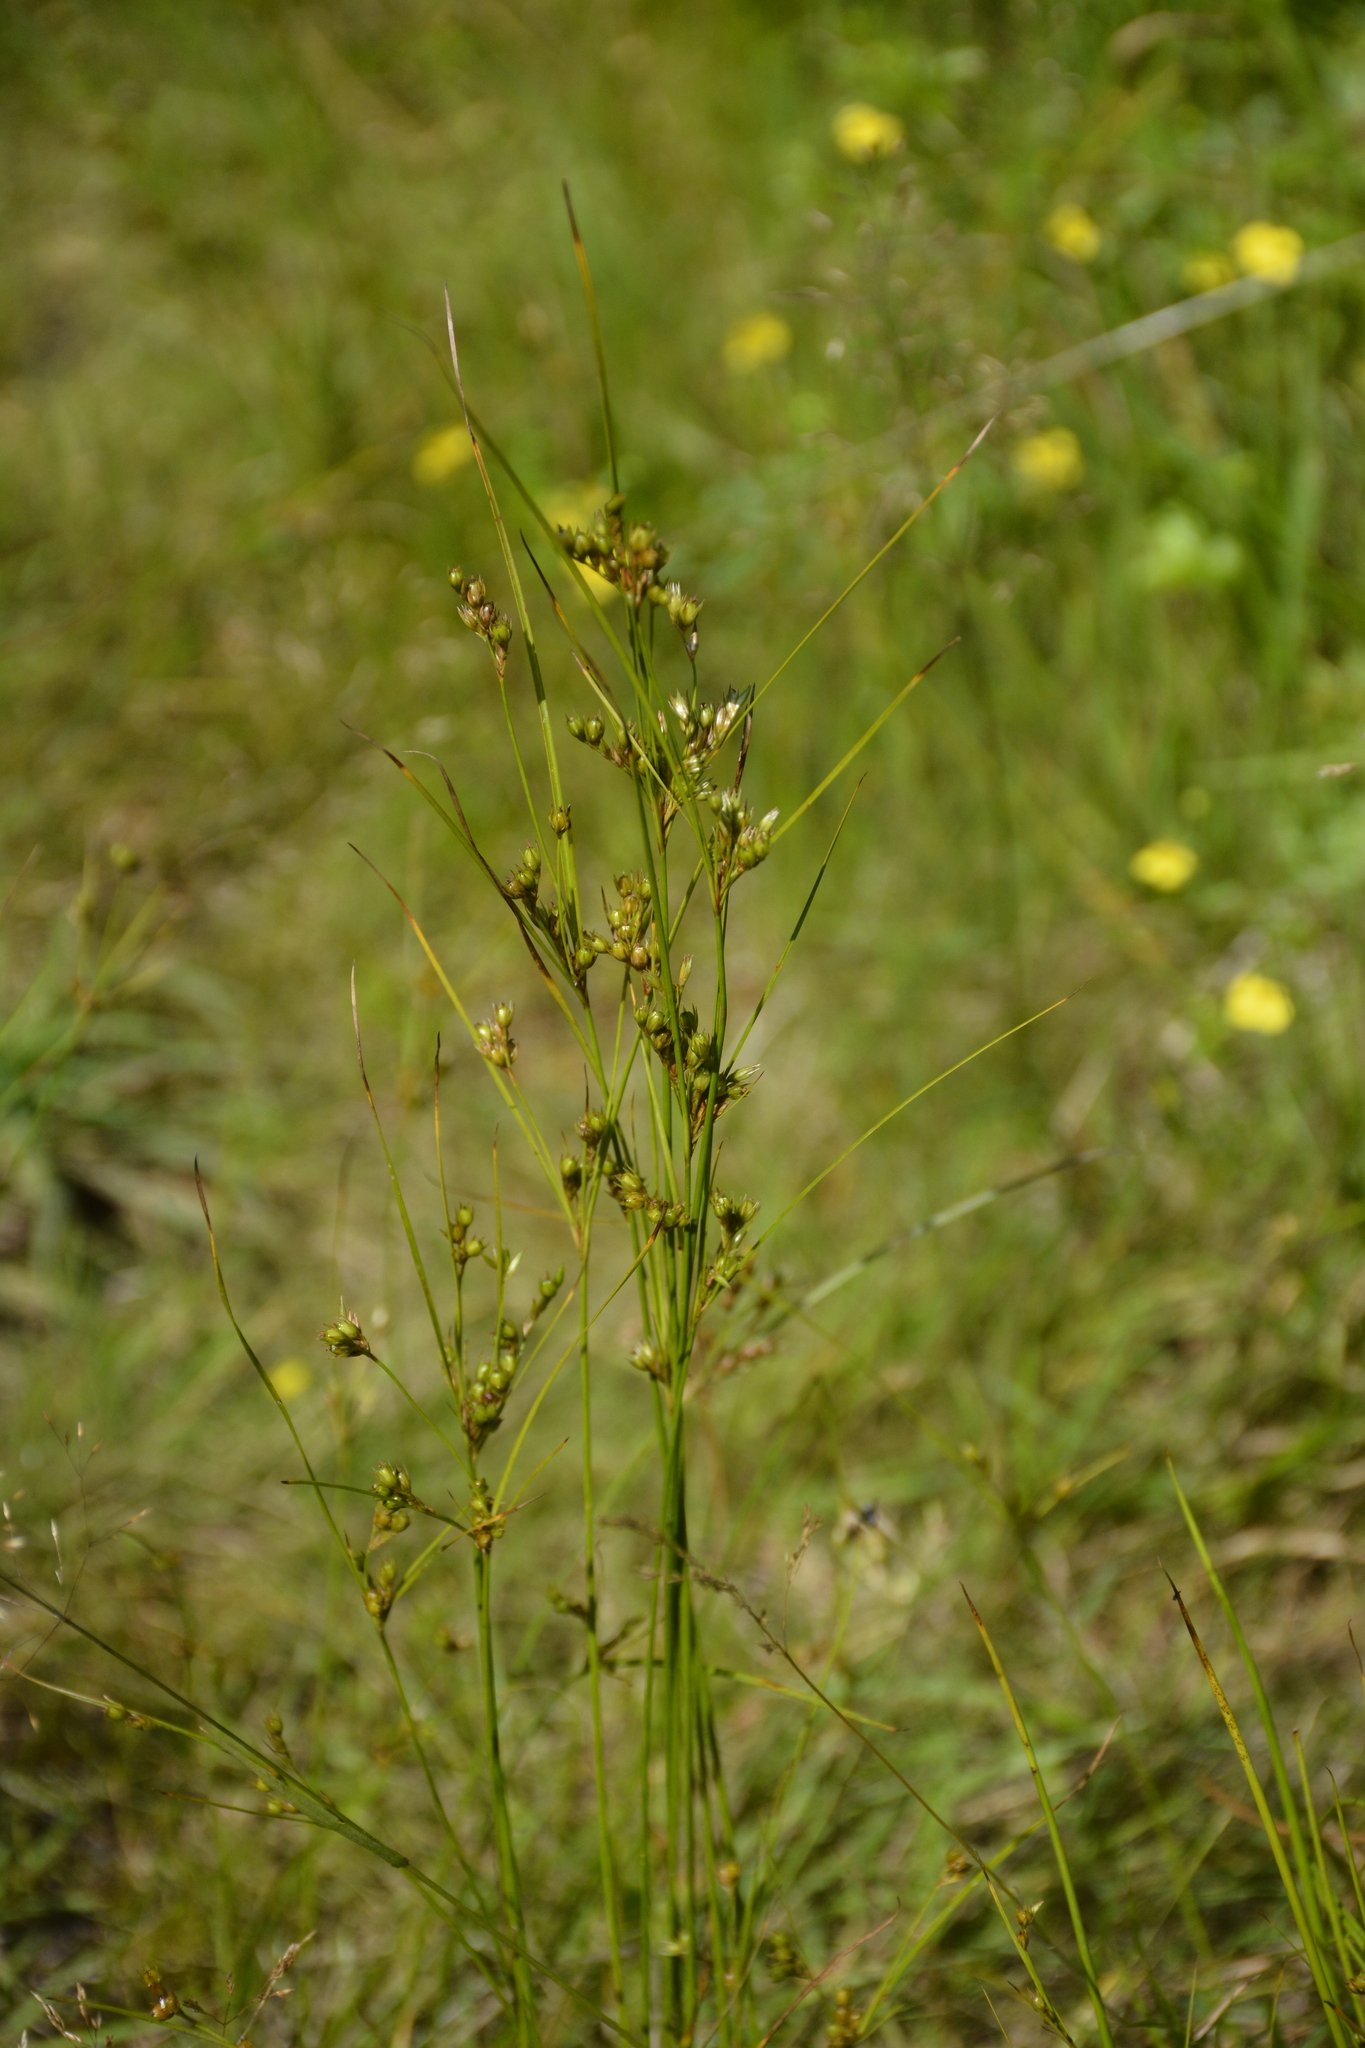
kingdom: Plantae
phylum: Tracheophyta
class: Liliopsida
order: Poales
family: Juncaceae
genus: Juncus
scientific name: Juncus tenuis
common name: Slender rush
